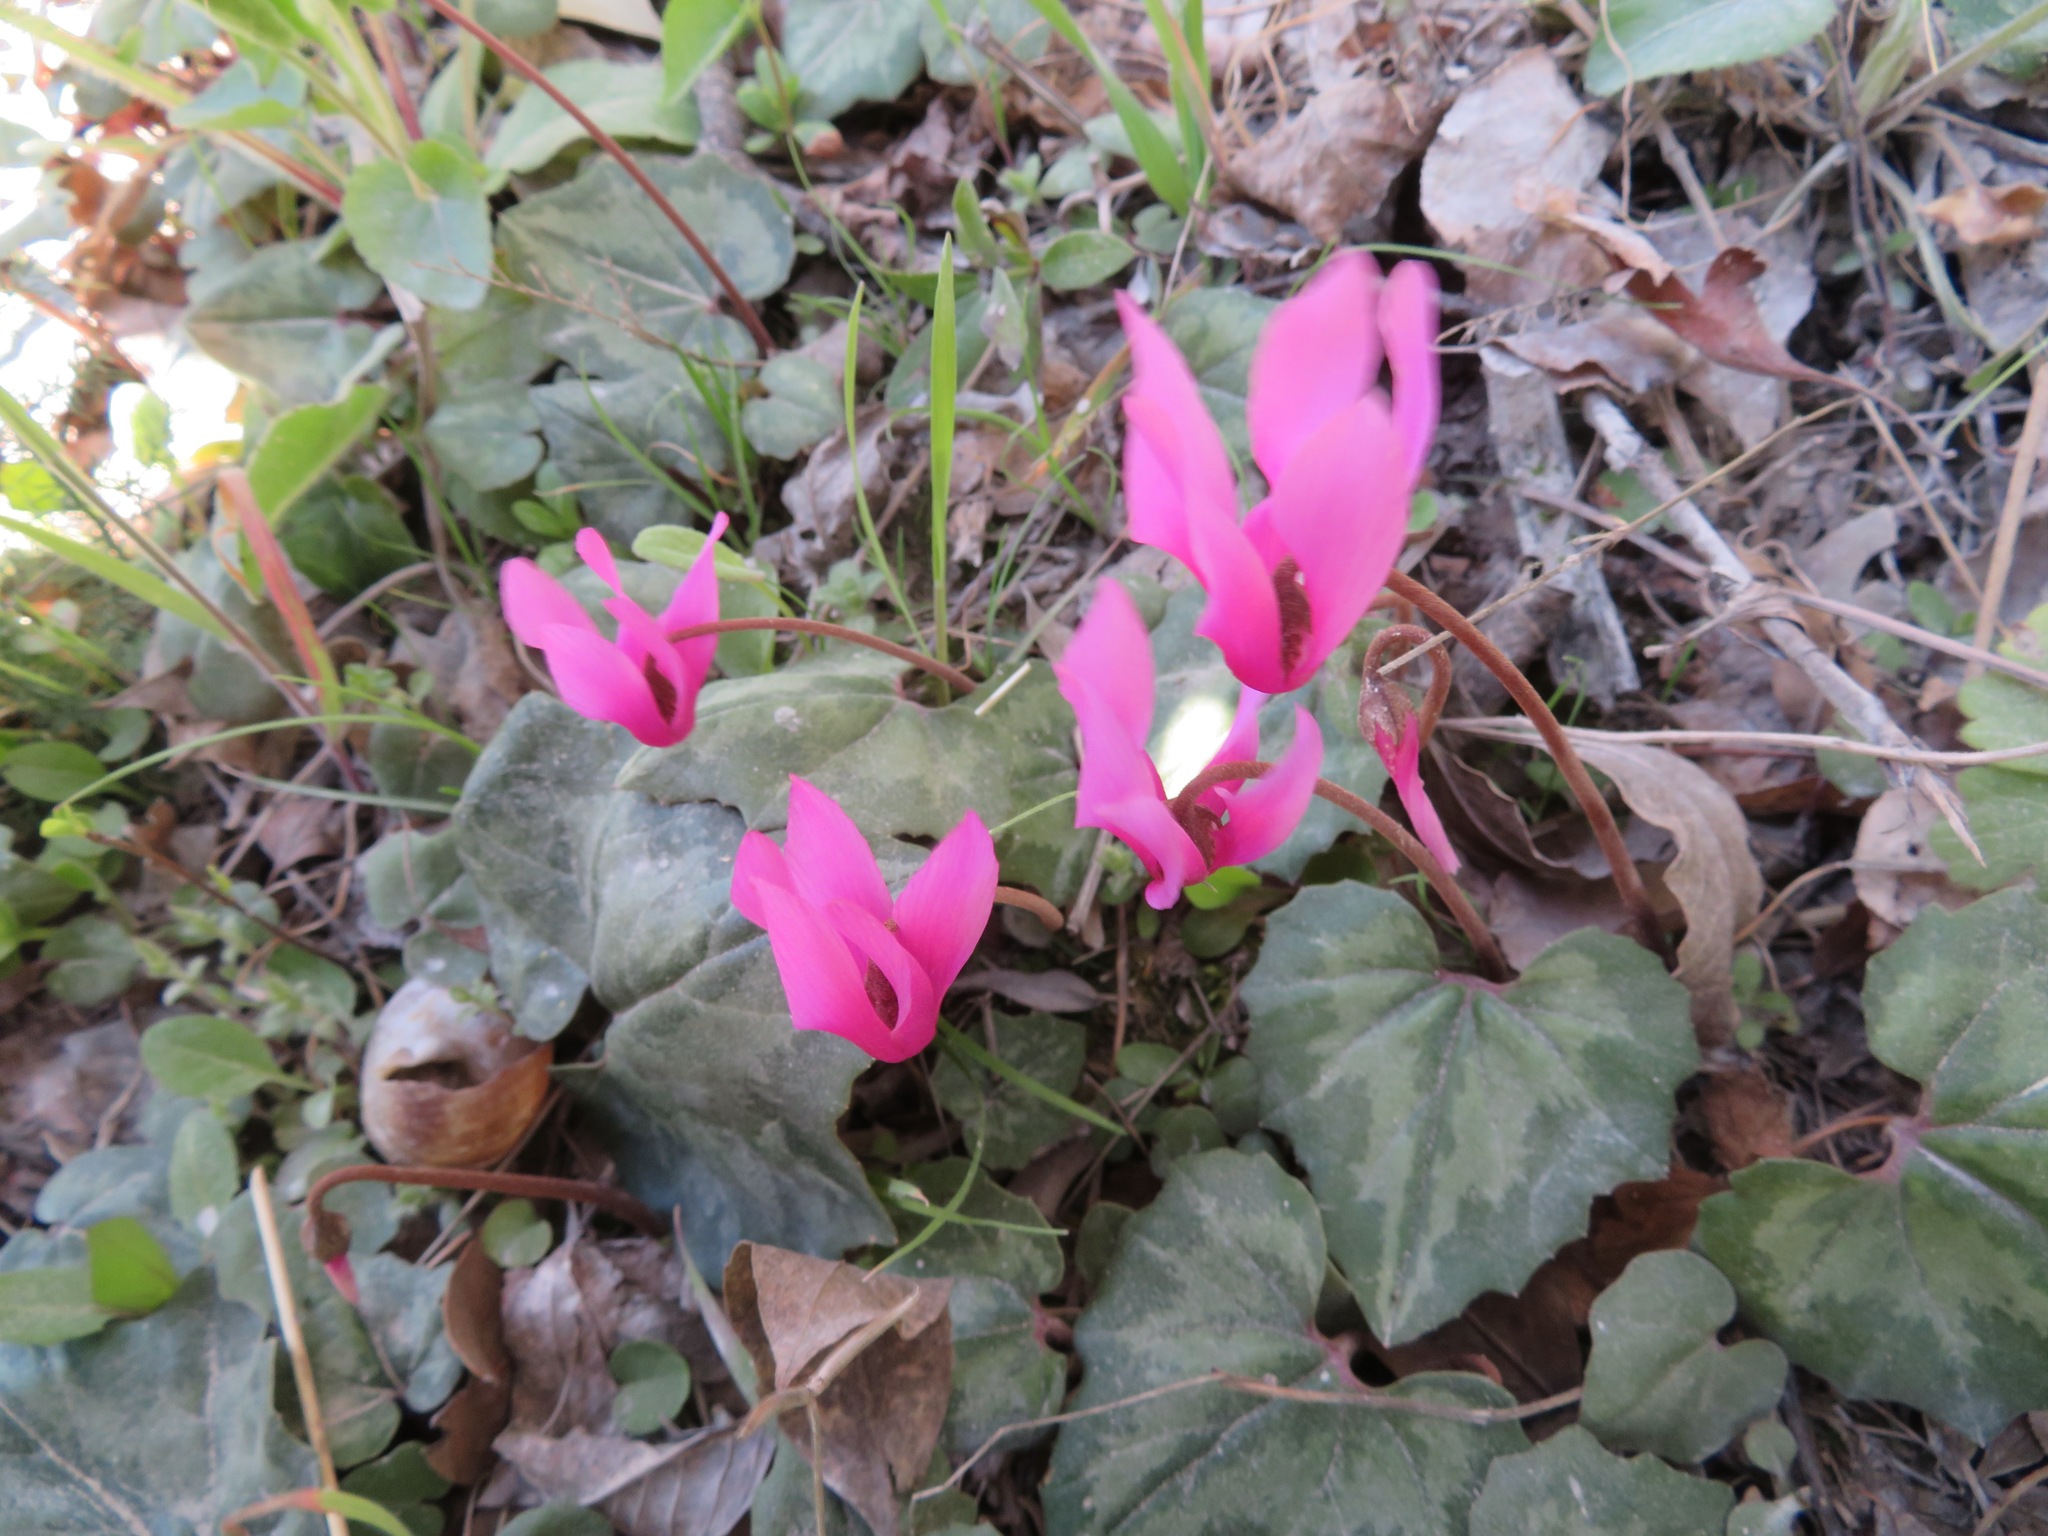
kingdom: Plantae
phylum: Tracheophyta
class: Magnoliopsida
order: Ericales
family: Primulaceae
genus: Cyclamen
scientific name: Cyclamen repandum
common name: Spring sowbread
